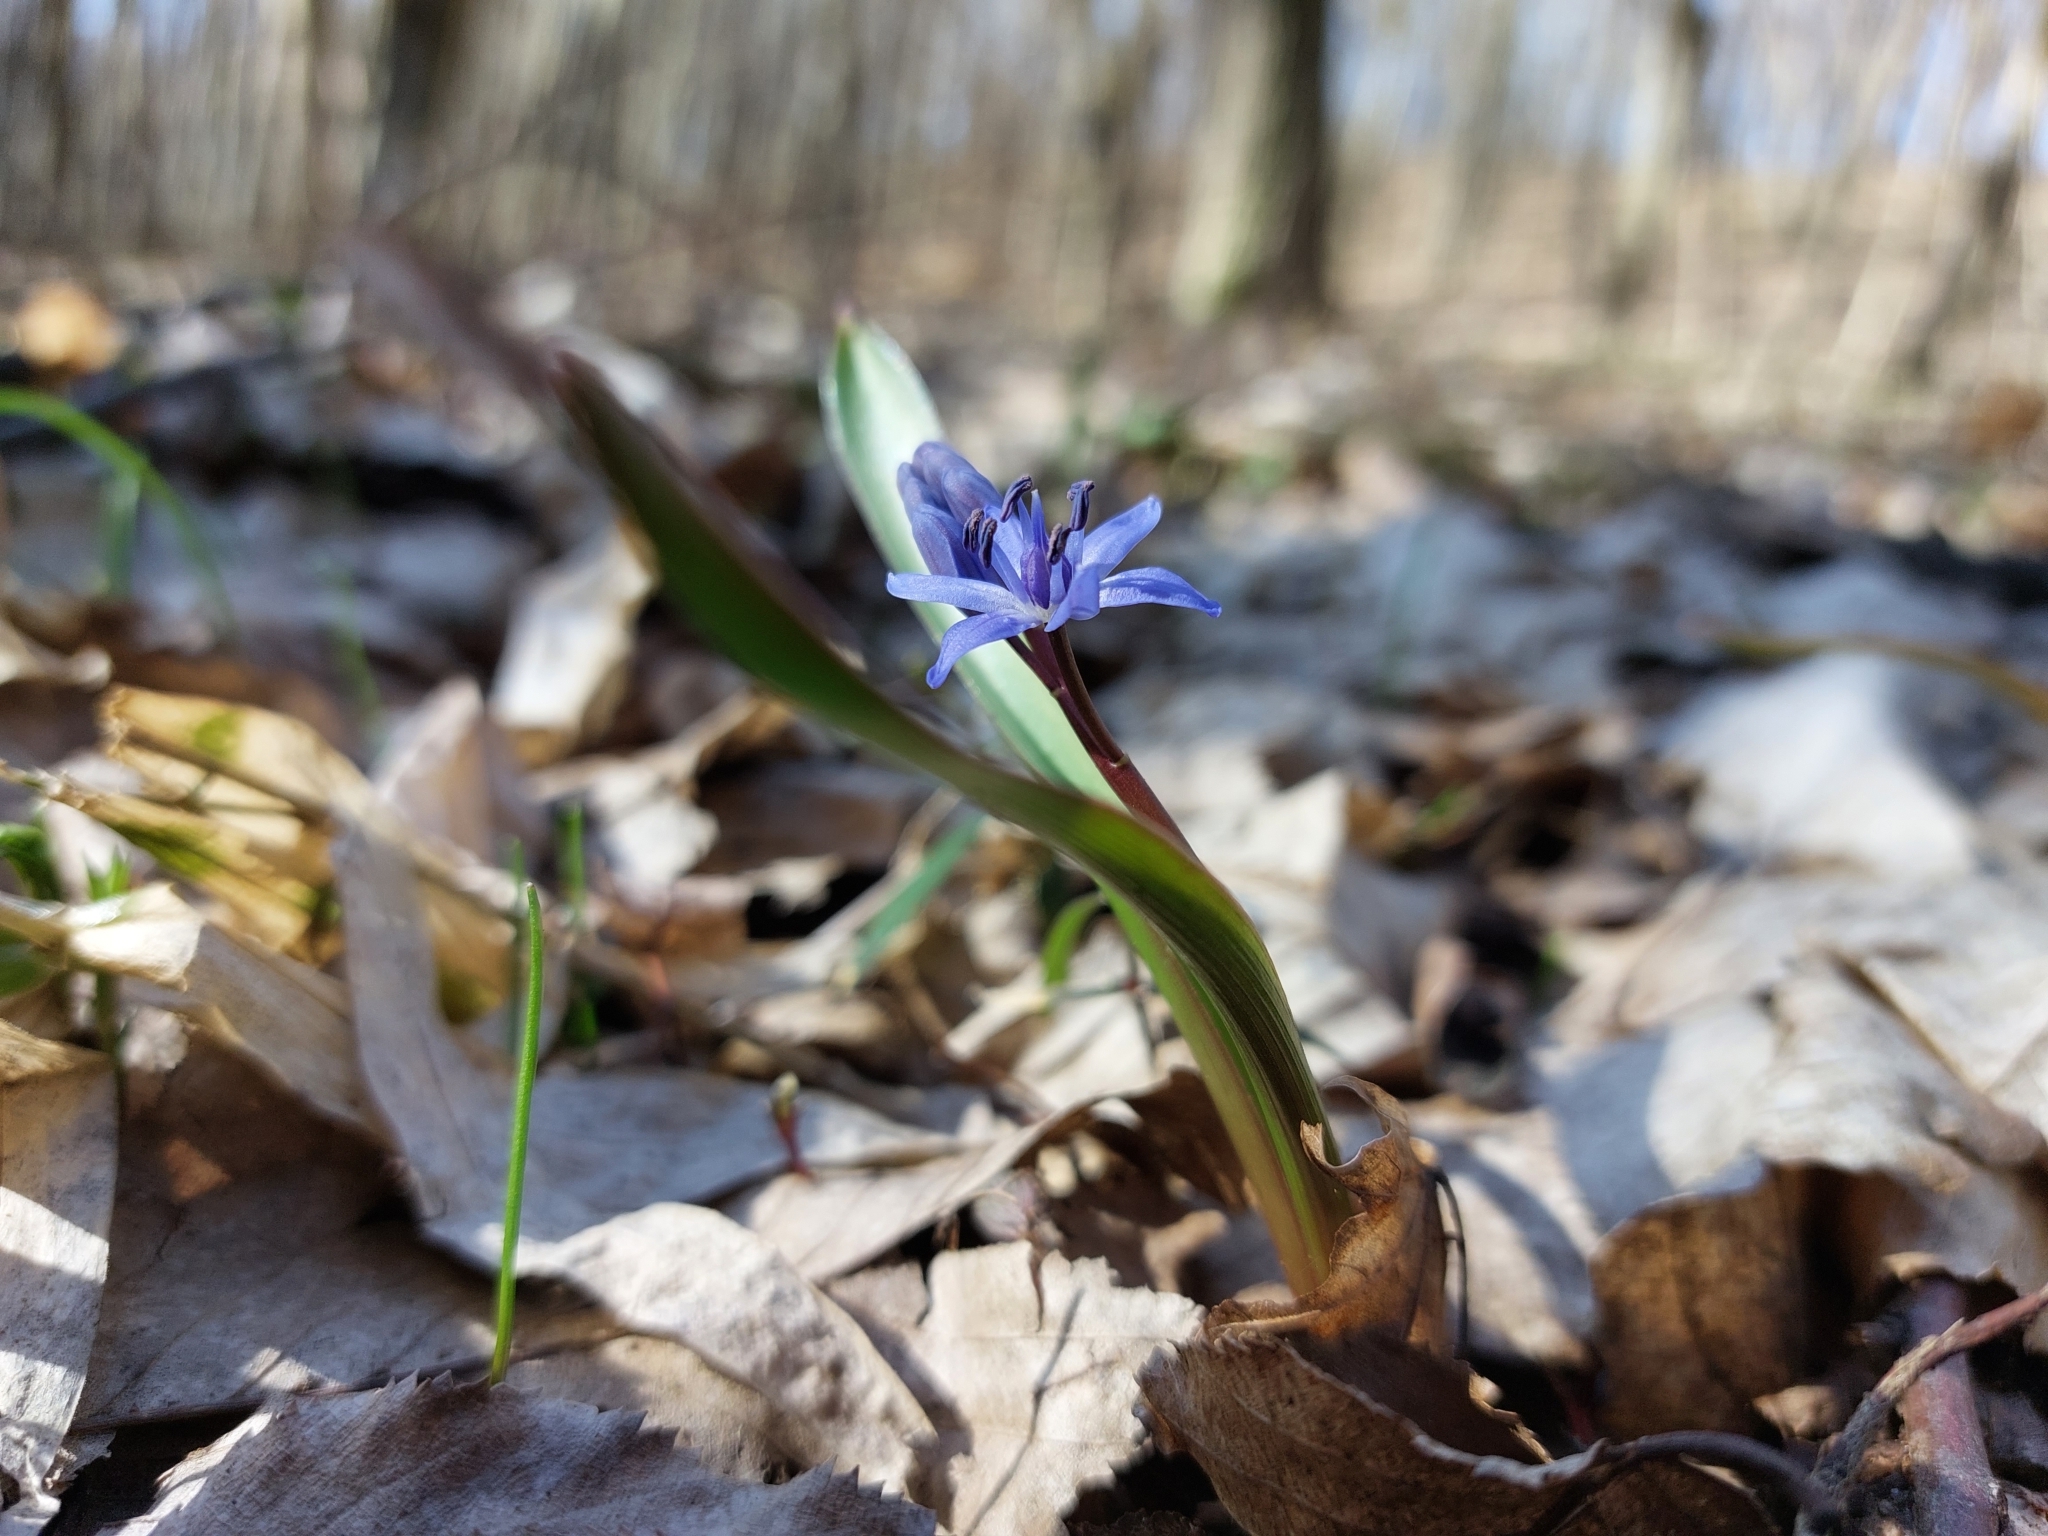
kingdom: Plantae
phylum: Tracheophyta
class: Liliopsida
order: Asparagales
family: Asparagaceae
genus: Scilla
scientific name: Scilla bifolia
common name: Alpine squill
